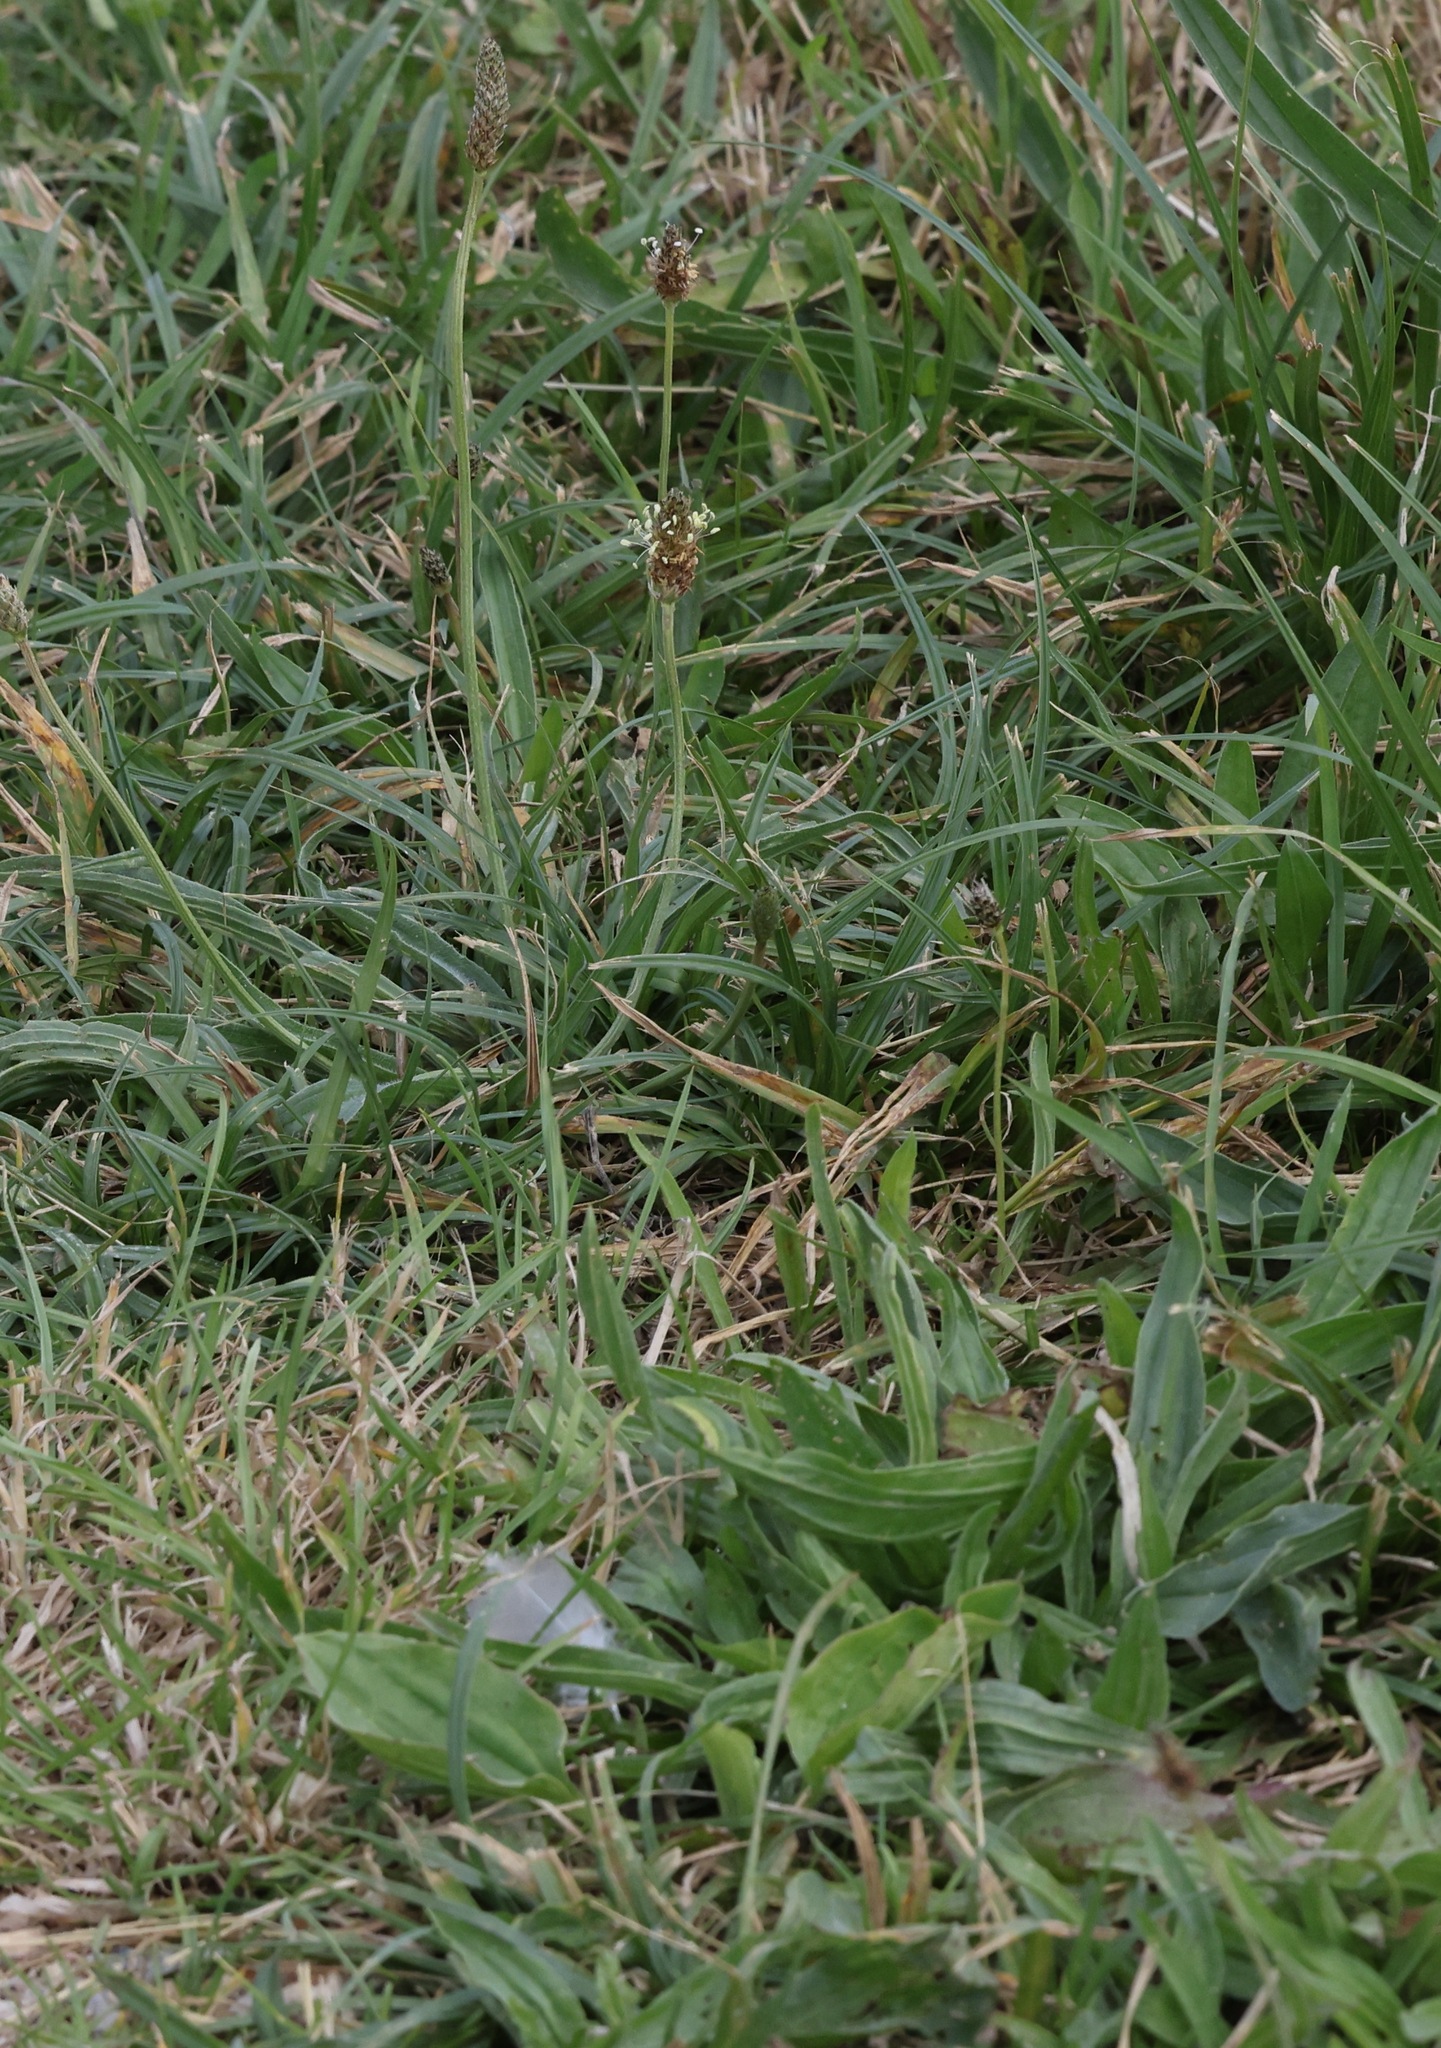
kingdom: Plantae
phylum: Tracheophyta
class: Magnoliopsida
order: Lamiales
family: Plantaginaceae
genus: Plantago
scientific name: Plantago lanceolata
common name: Ribwort plantain
